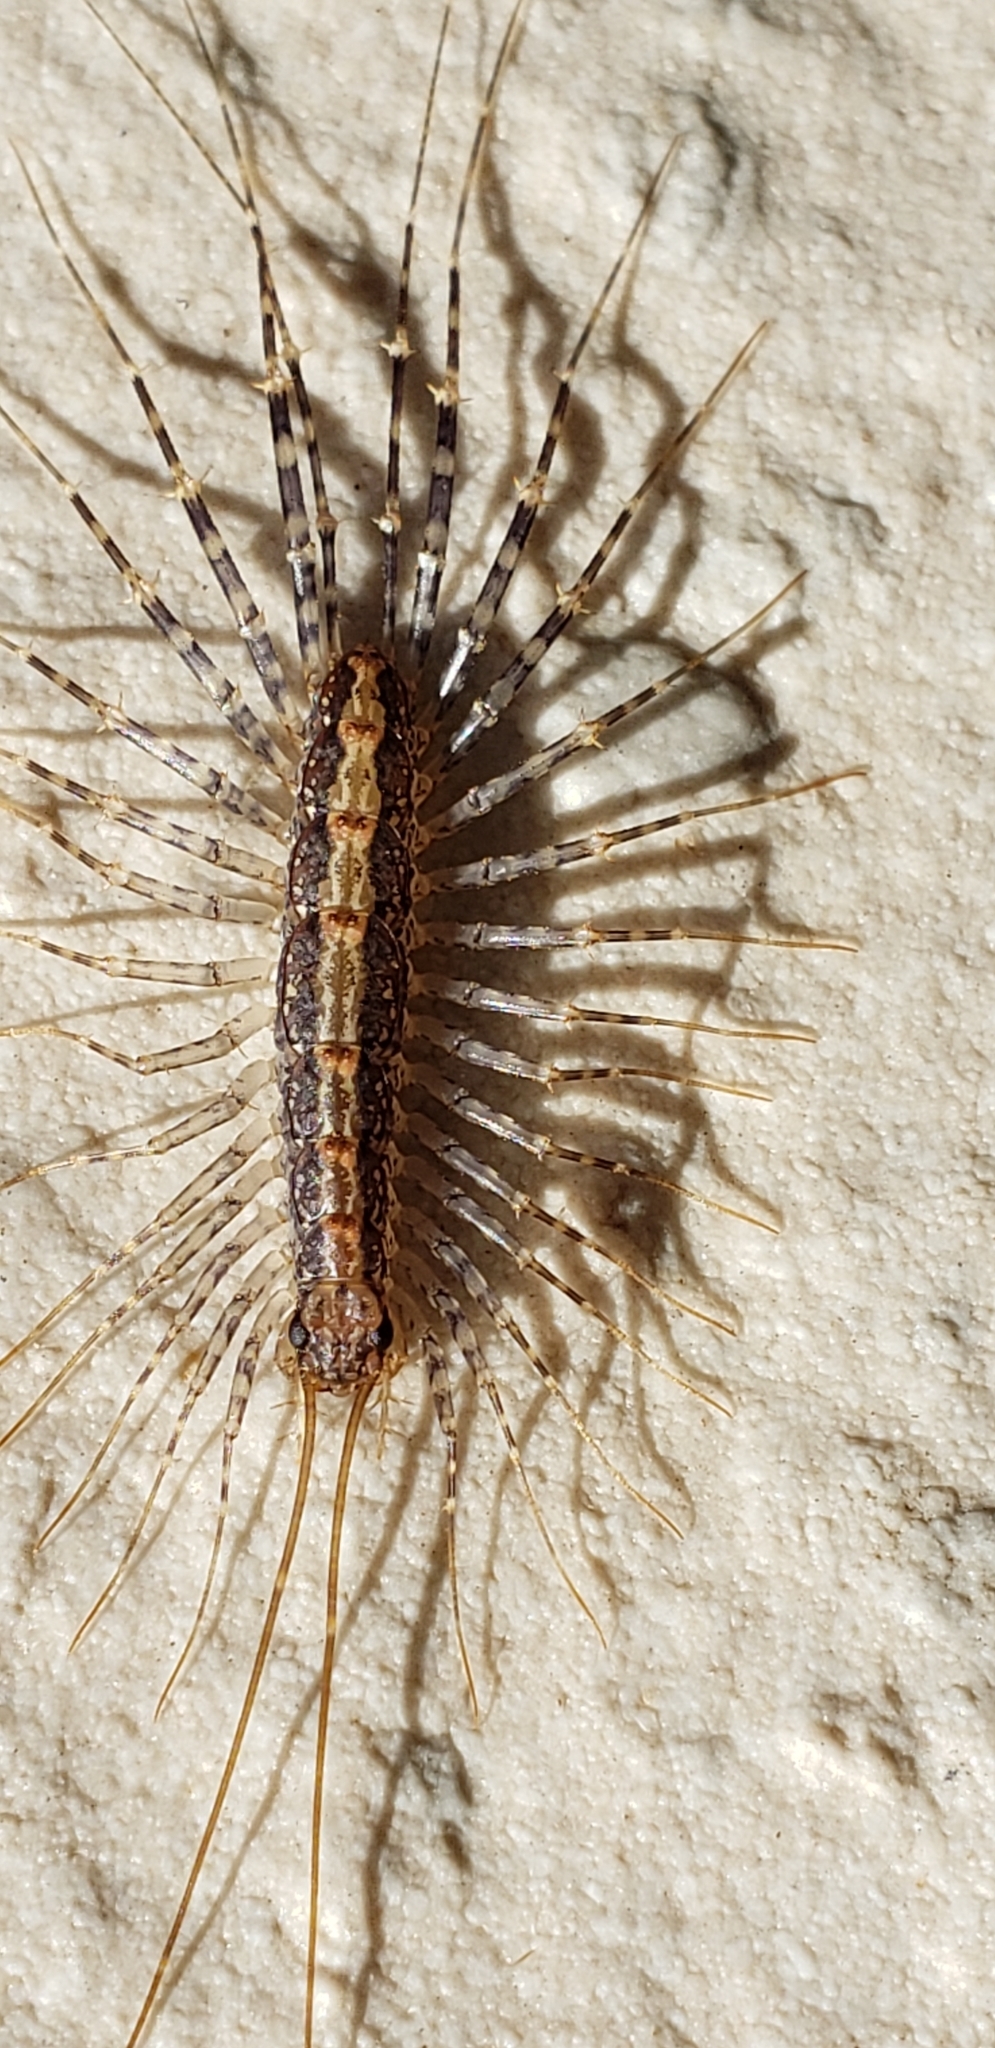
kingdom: Animalia
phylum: Arthropoda
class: Chilopoda
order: Scutigeromorpha
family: Scutigeridae
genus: Scutigera
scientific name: Scutigera coleoptrata
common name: House centipede
